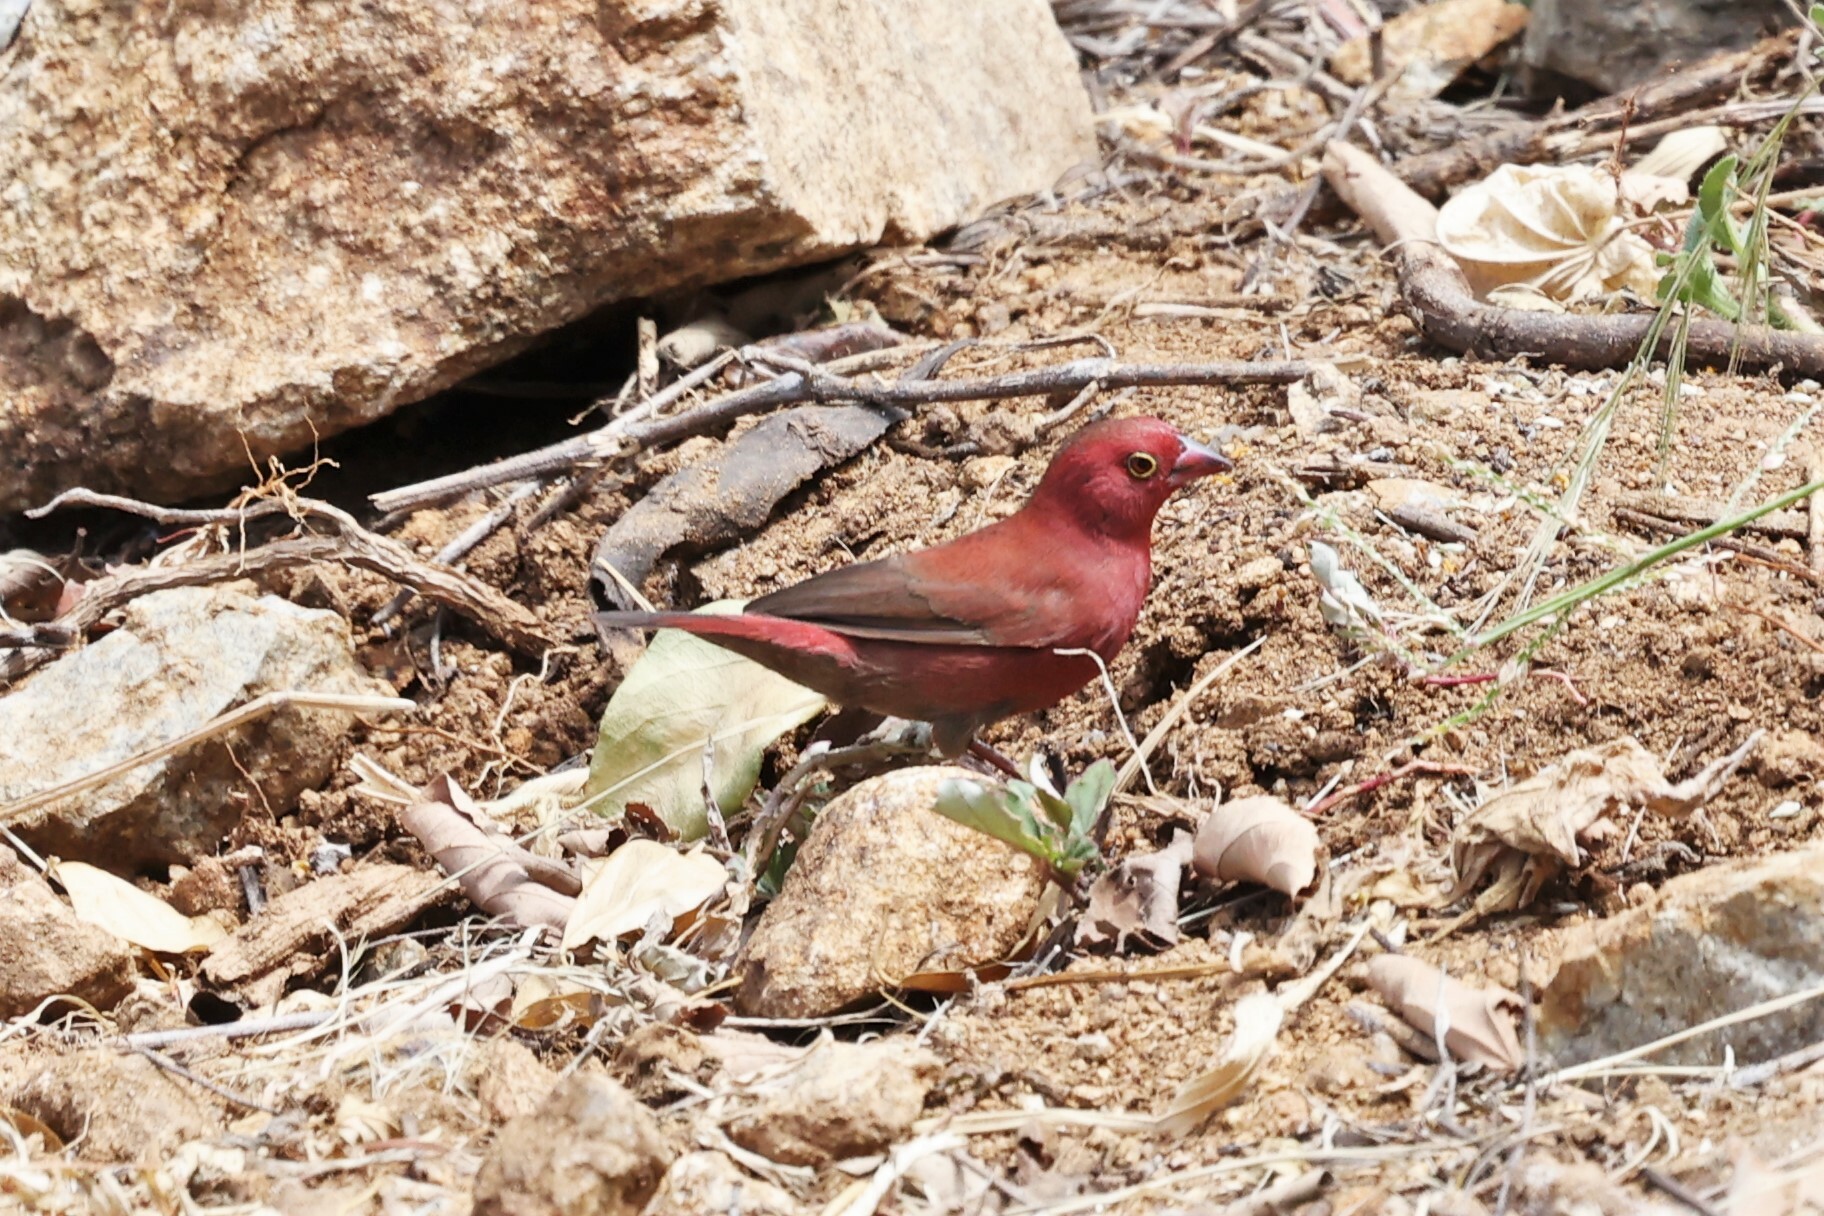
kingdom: Animalia
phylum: Chordata
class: Aves
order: Passeriformes
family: Estrildidae
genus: Lagonosticta
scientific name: Lagonosticta senegala
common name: Red-billed firefinch
